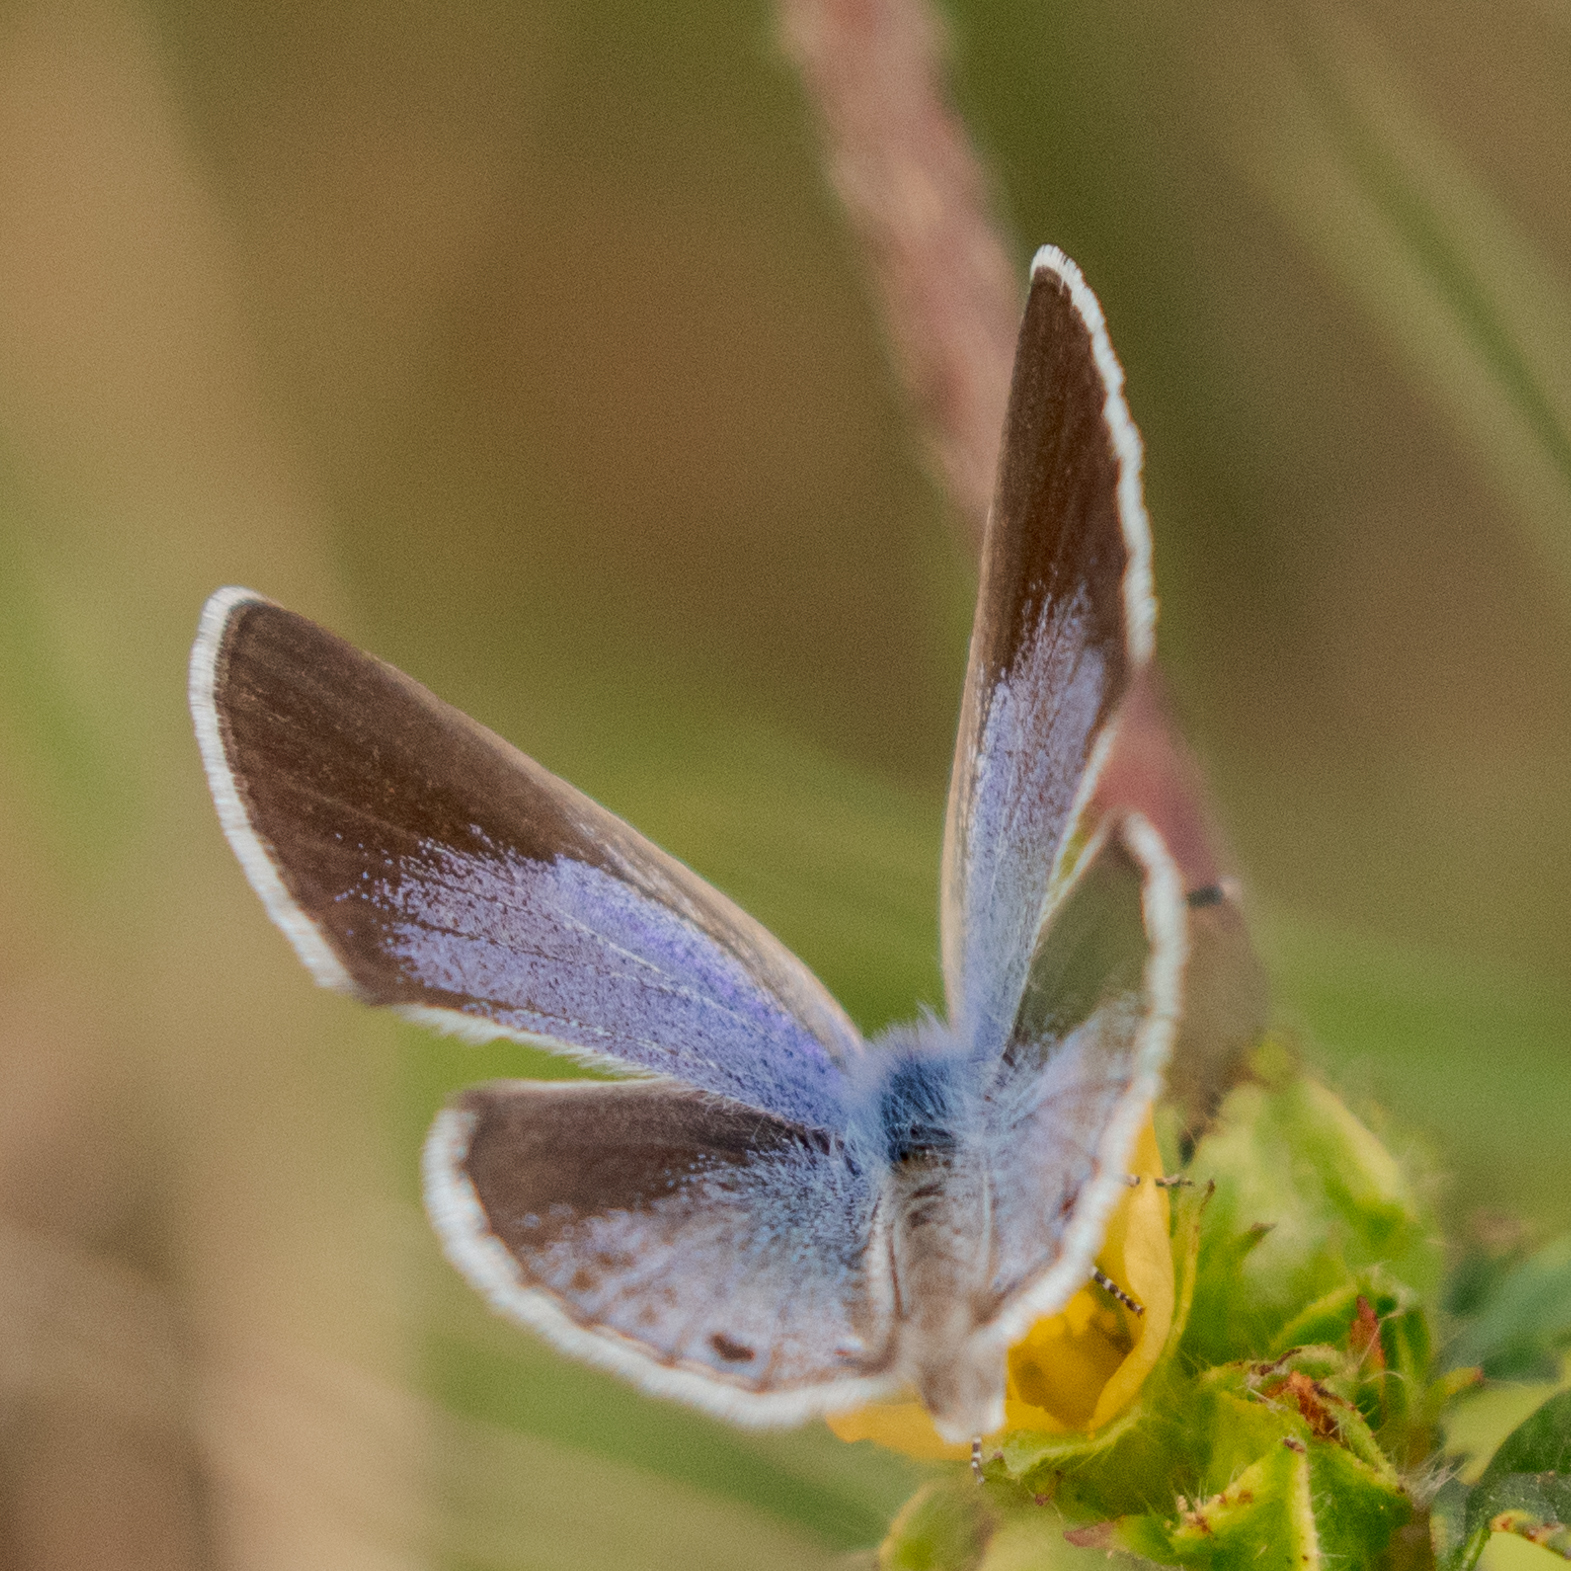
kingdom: Animalia
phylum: Arthropoda
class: Insecta
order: Lepidoptera
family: Lycaenidae
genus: Echinargus
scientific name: Echinargus isola
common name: Reakirt's blue
